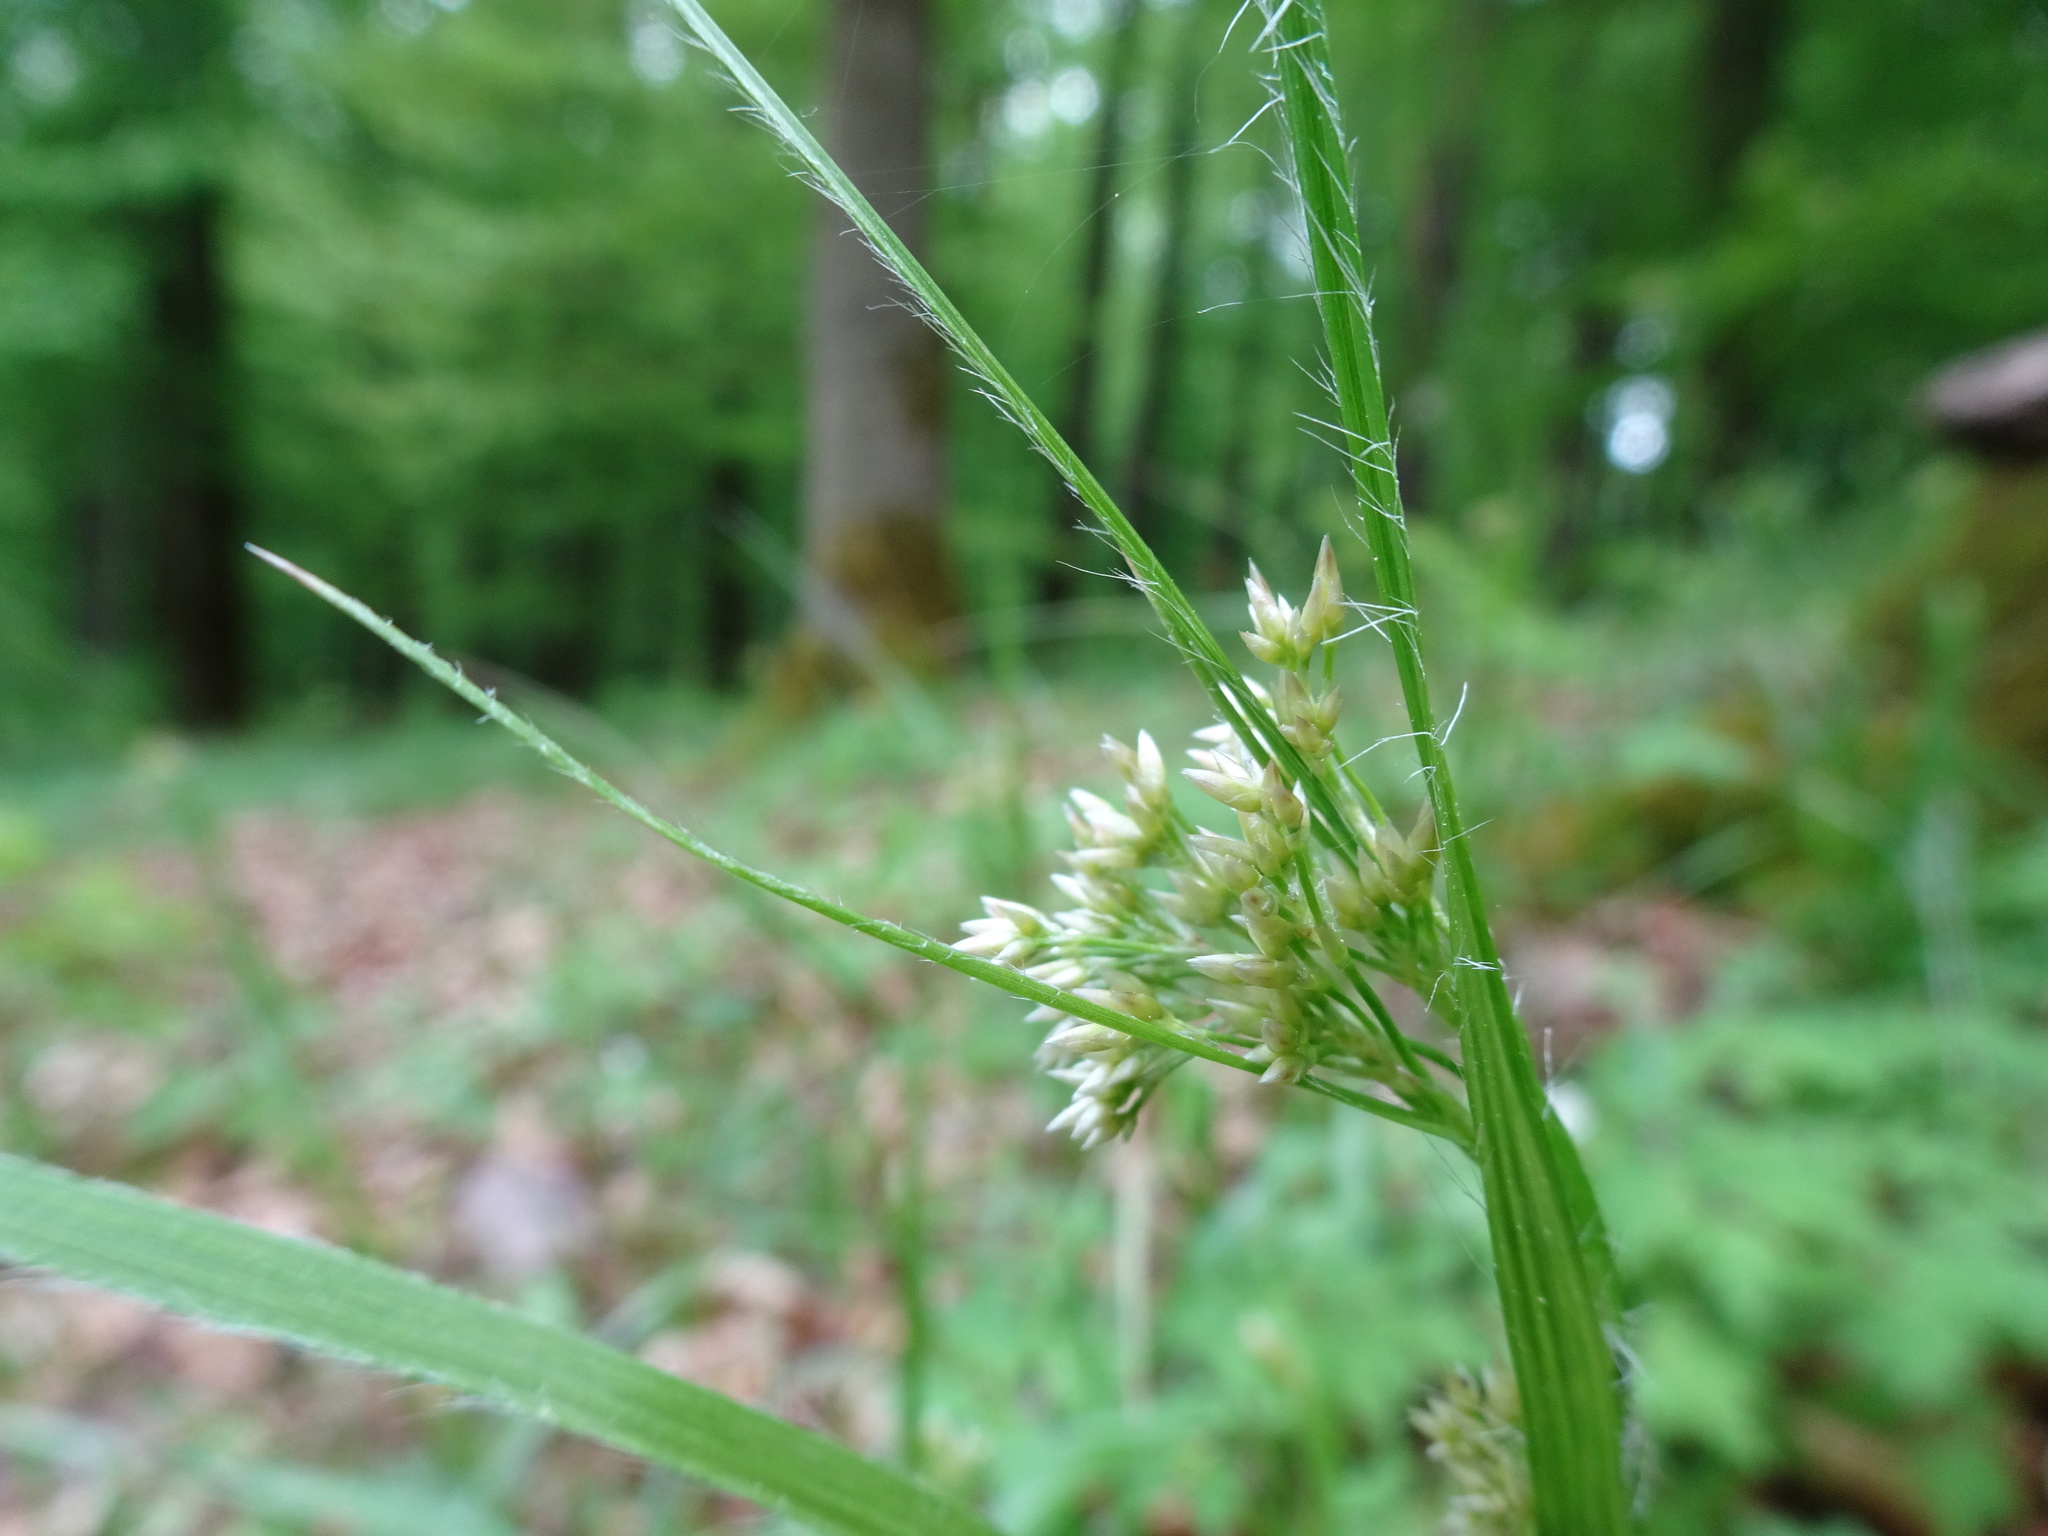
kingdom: Plantae
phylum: Tracheophyta
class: Liliopsida
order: Poales
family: Juncaceae
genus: Luzula
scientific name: Luzula luzuloides
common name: White wood-rush
